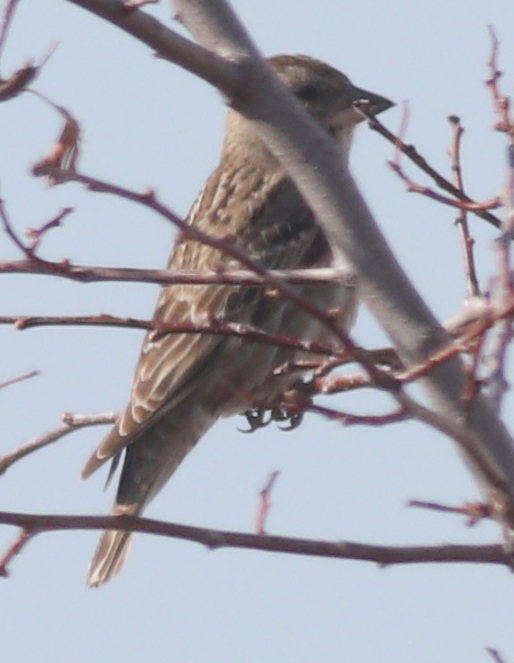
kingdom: Animalia
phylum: Chordata
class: Aves
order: Passeriformes
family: Passeridae
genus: Petronia
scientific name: Petronia petronia
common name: Rock sparrow
